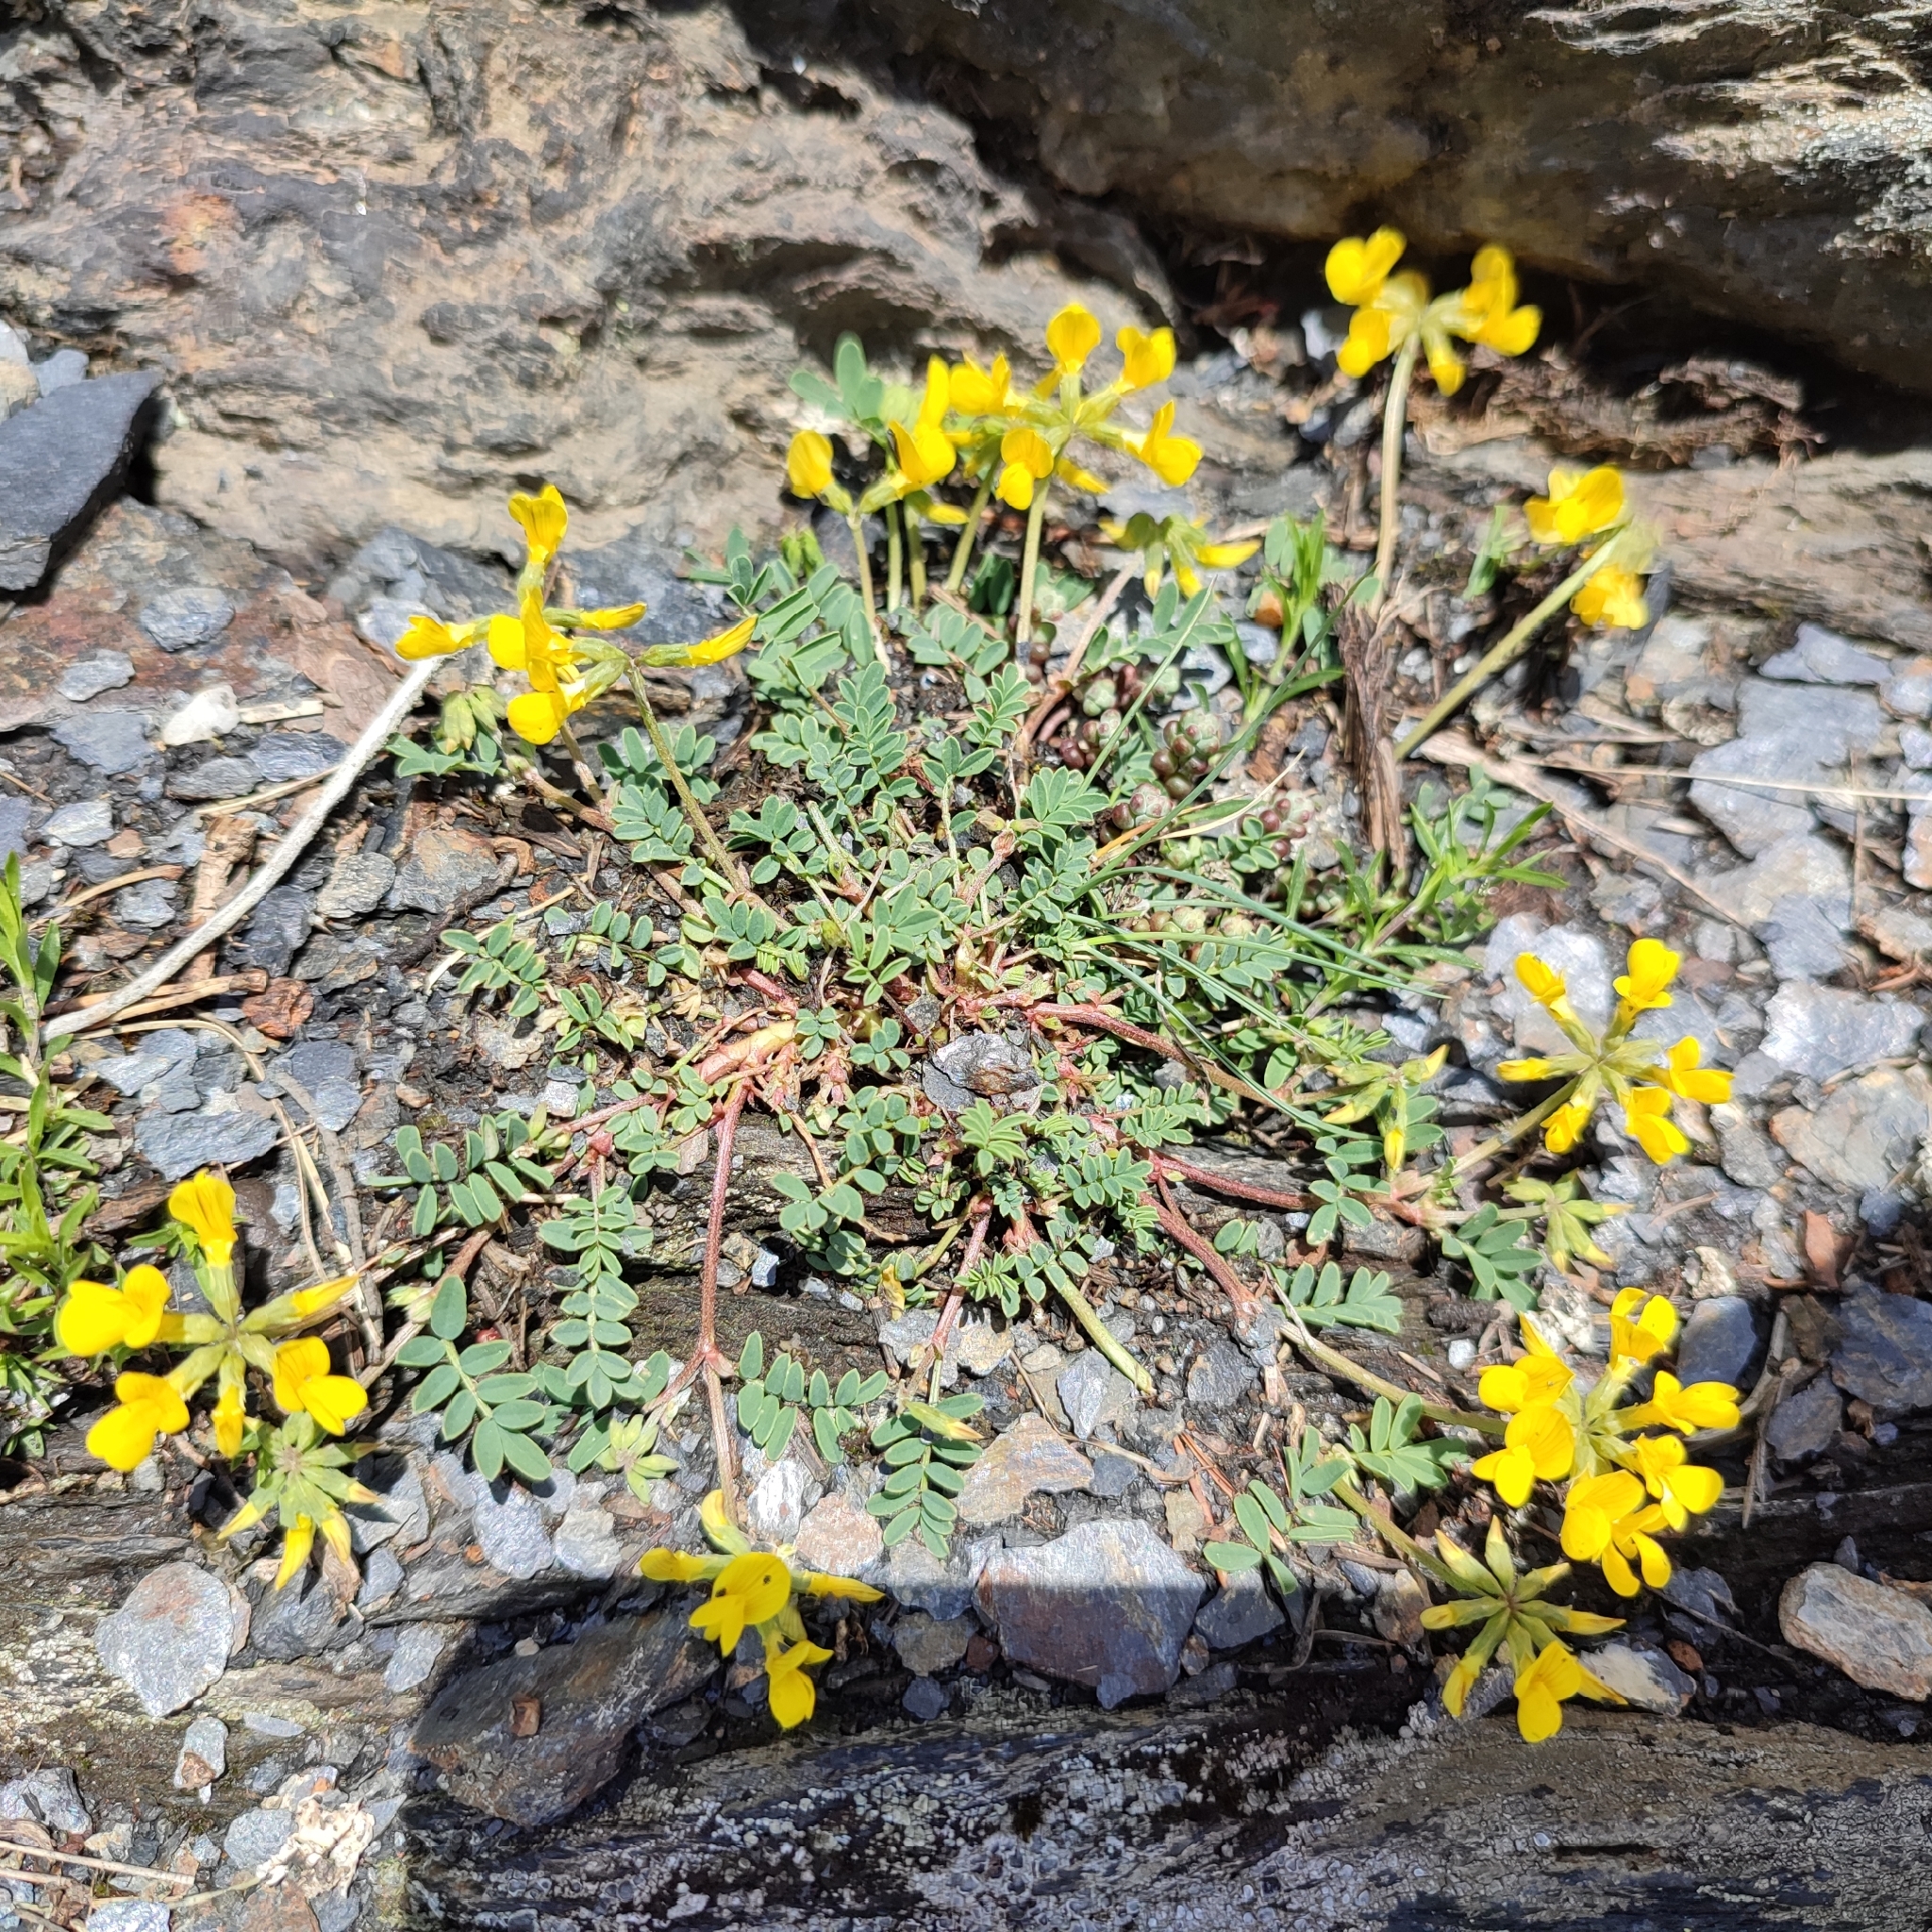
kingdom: Plantae
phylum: Tracheophyta
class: Magnoliopsida
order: Fabales
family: Fabaceae
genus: Hippocrepis
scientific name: Hippocrepis comosa
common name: Horseshoe vetch
